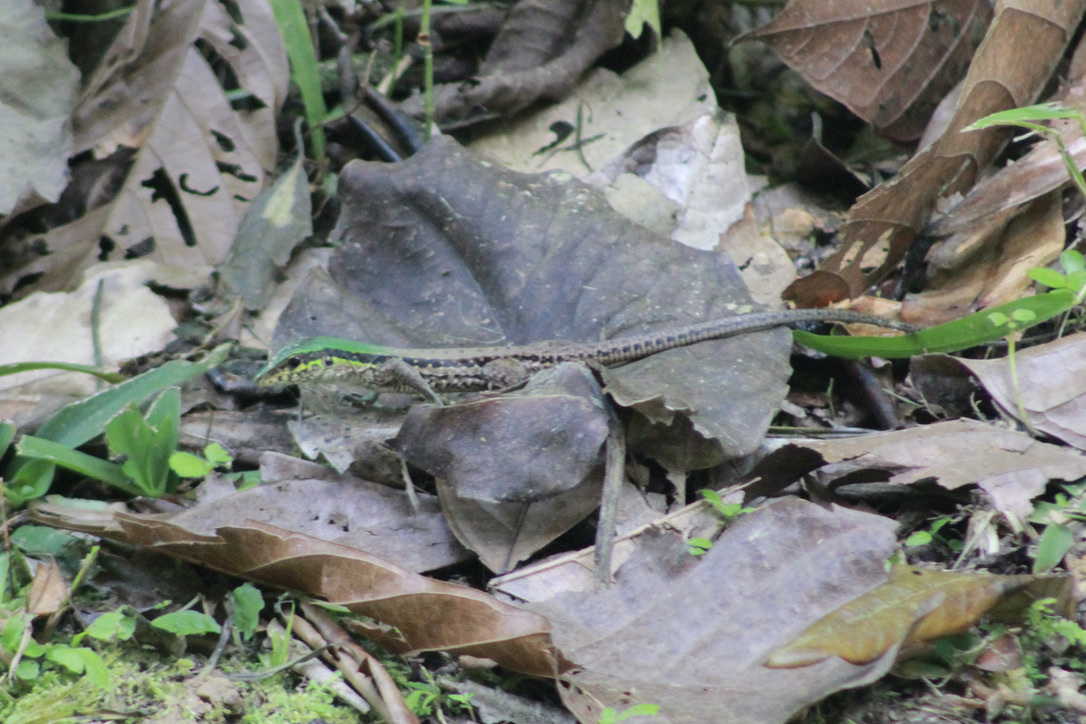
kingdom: Animalia
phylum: Chordata
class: Squamata
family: Teiidae
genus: Ameiva
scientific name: Ameiva atrigularis
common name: Venezuelan ameiva
